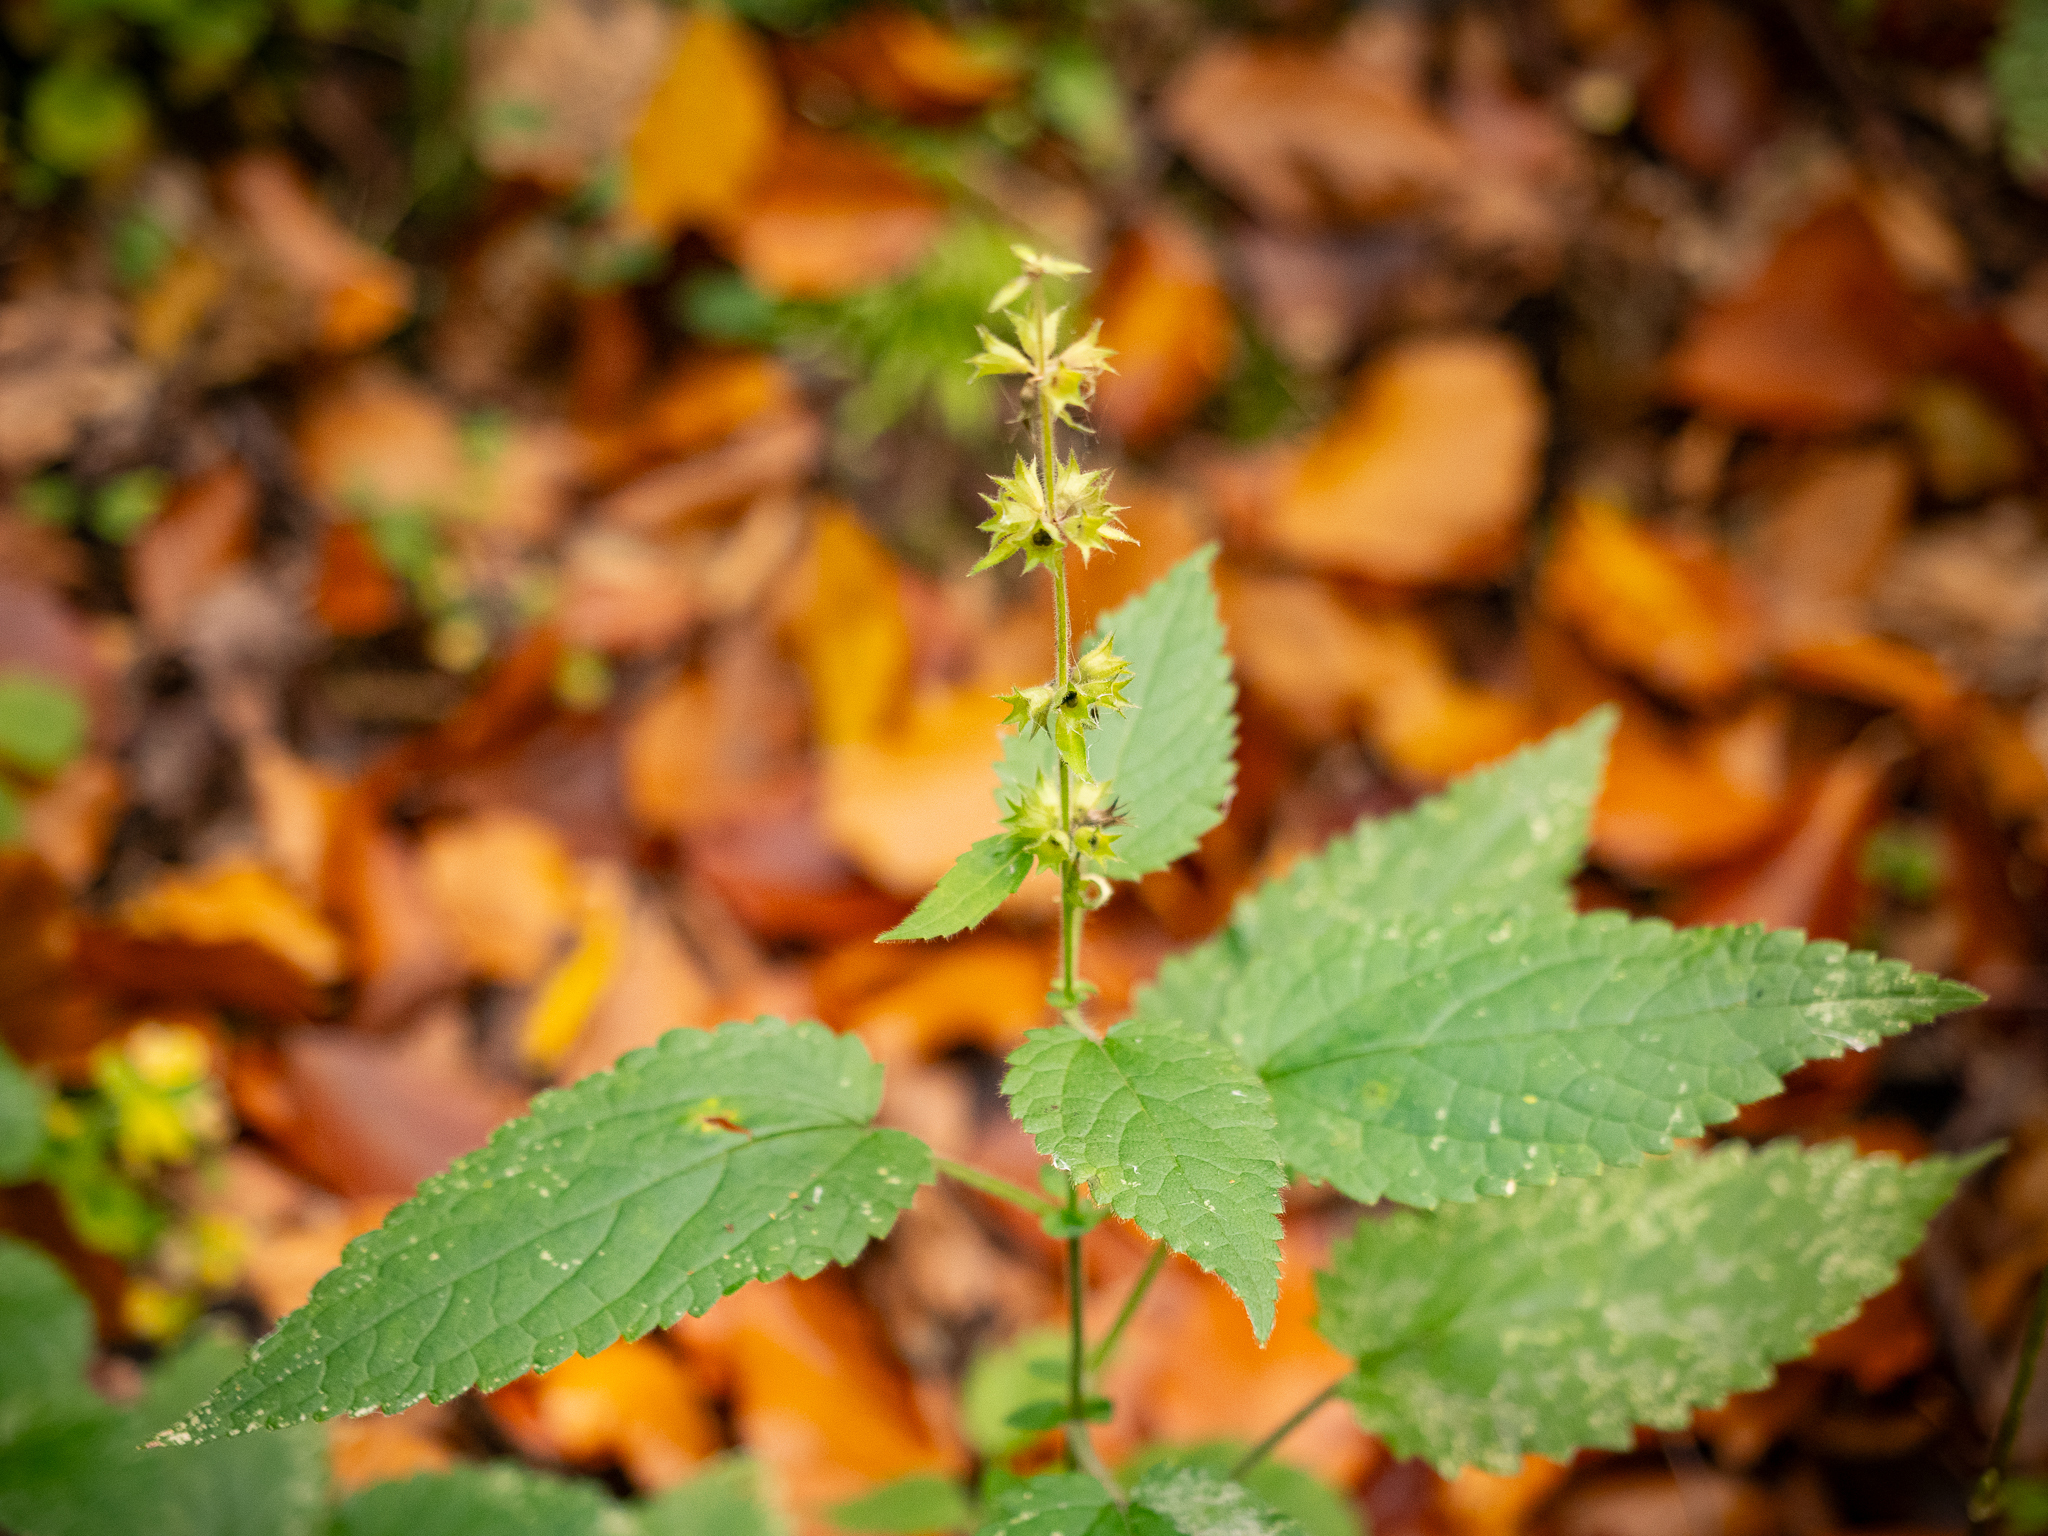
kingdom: Plantae
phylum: Tracheophyta
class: Magnoliopsida
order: Lamiales
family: Lamiaceae
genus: Stachys
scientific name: Stachys sylvatica
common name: Hedge woundwort
